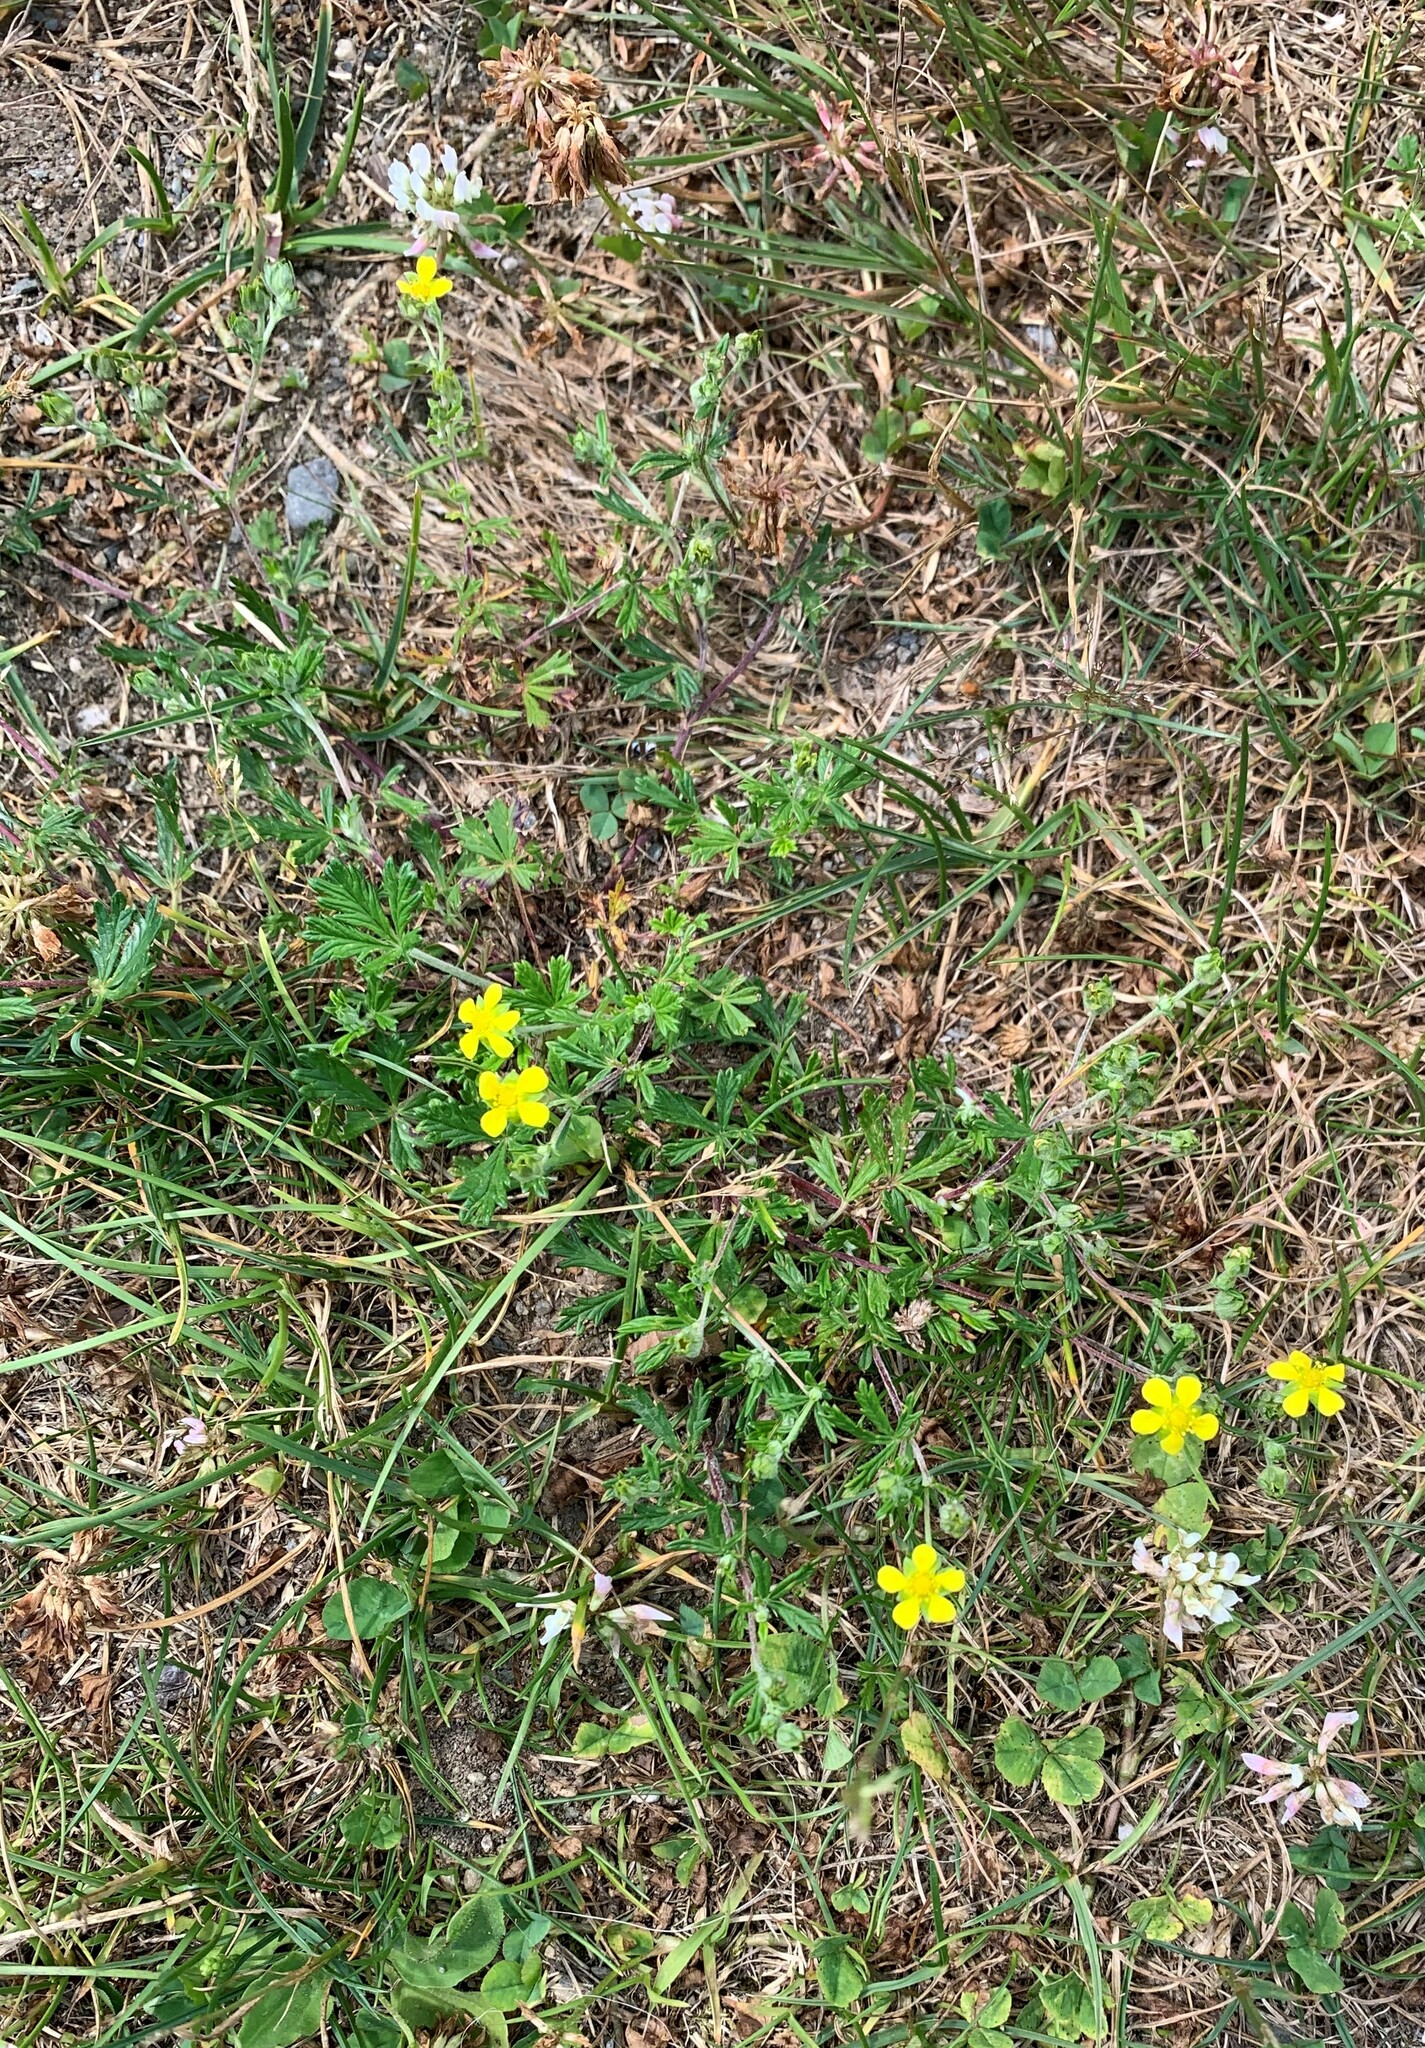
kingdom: Plantae
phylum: Tracheophyta
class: Magnoliopsida
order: Rosales
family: Rosaceae
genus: Potentilla
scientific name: Potentilla argentea
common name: Hoary cinquefoil
